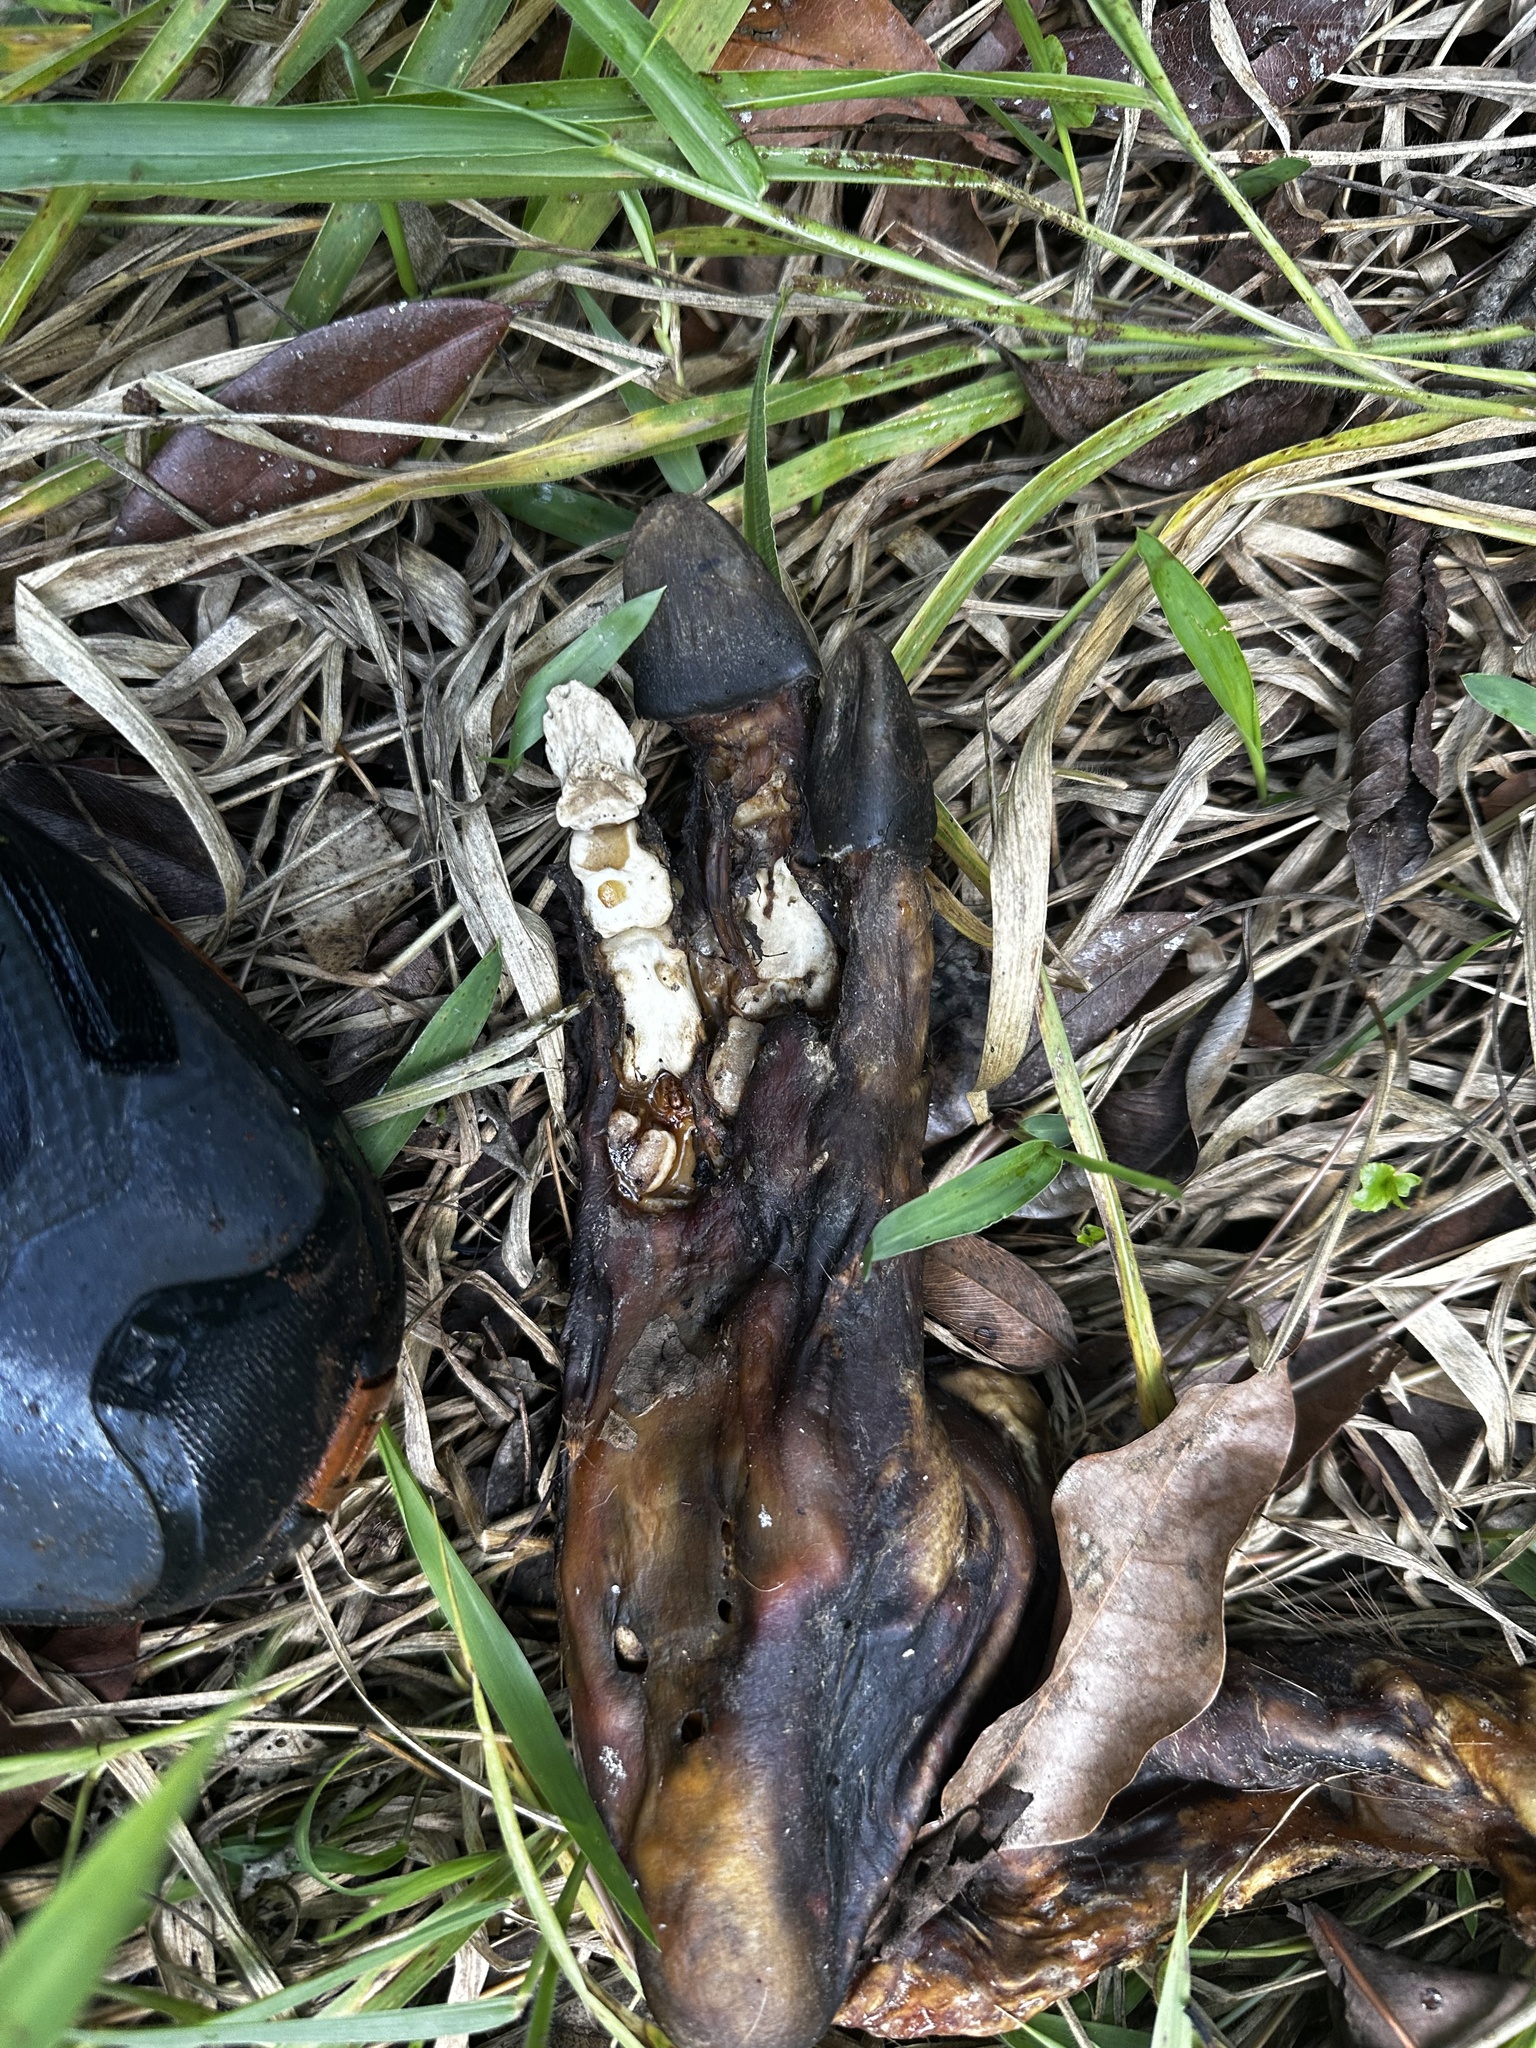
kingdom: Animalia
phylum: Chordata
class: Mammalia
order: Rodentia
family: Caviidae
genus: Hydrochoerus
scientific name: Hydrochoerus hydrochaeris
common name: Capybara
